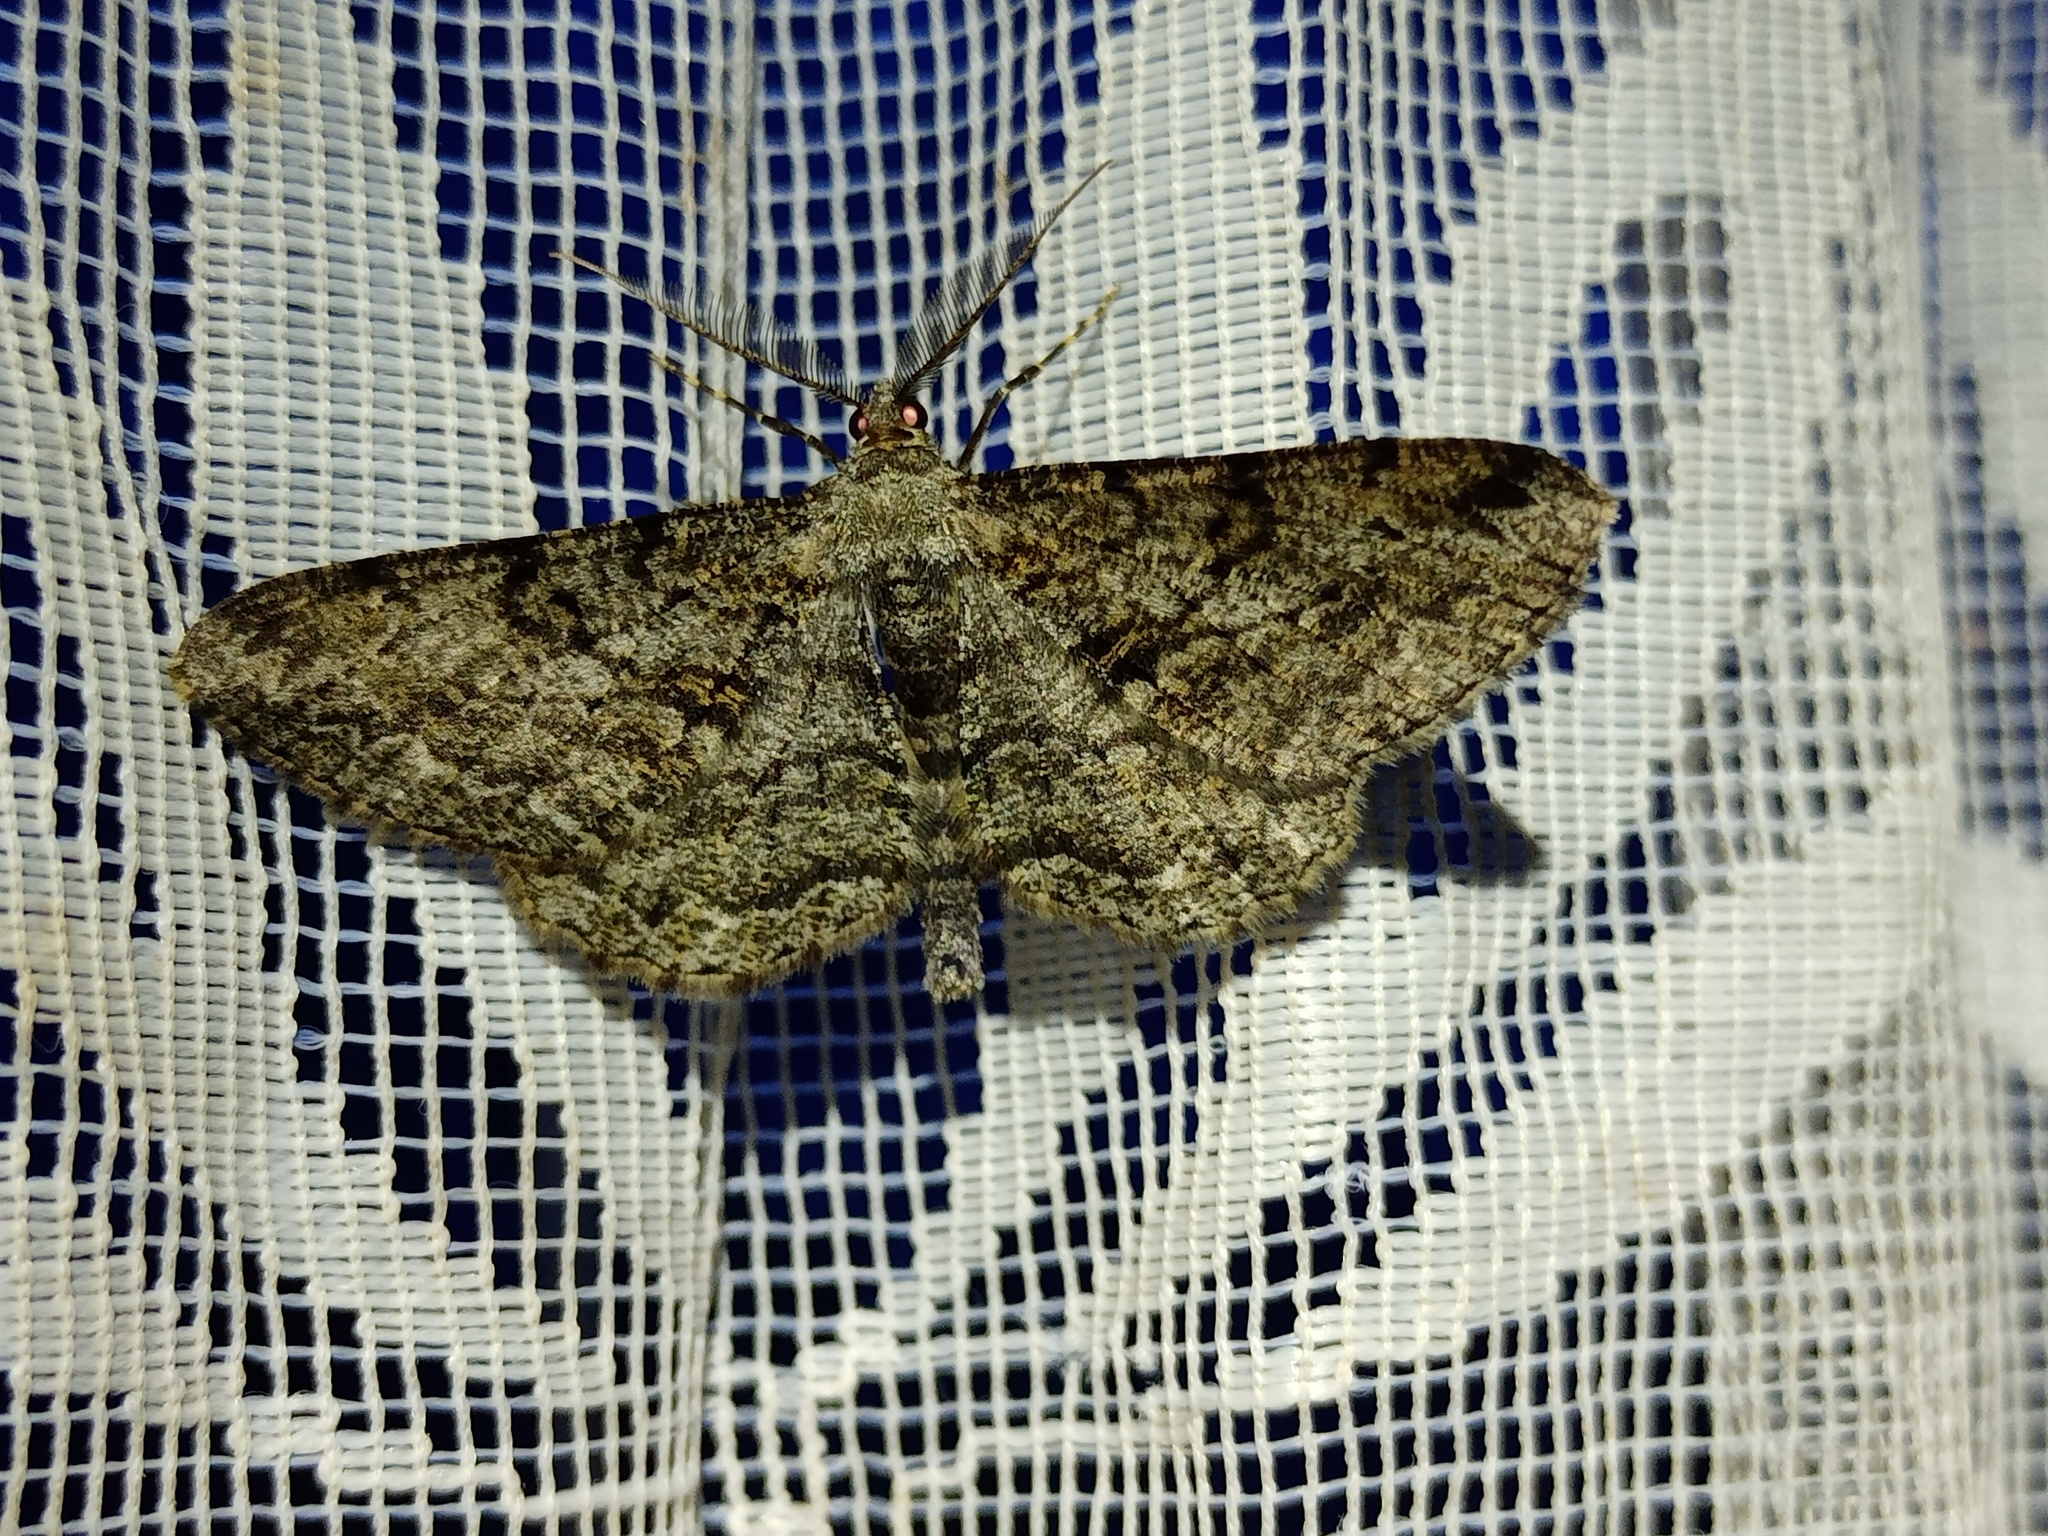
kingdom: Animalia
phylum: Arthropoda
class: Insecta
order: Lepidoptera
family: Geometridae
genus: Peribatodes
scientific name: Peribatodes rhomboidaria
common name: Willow beauty
